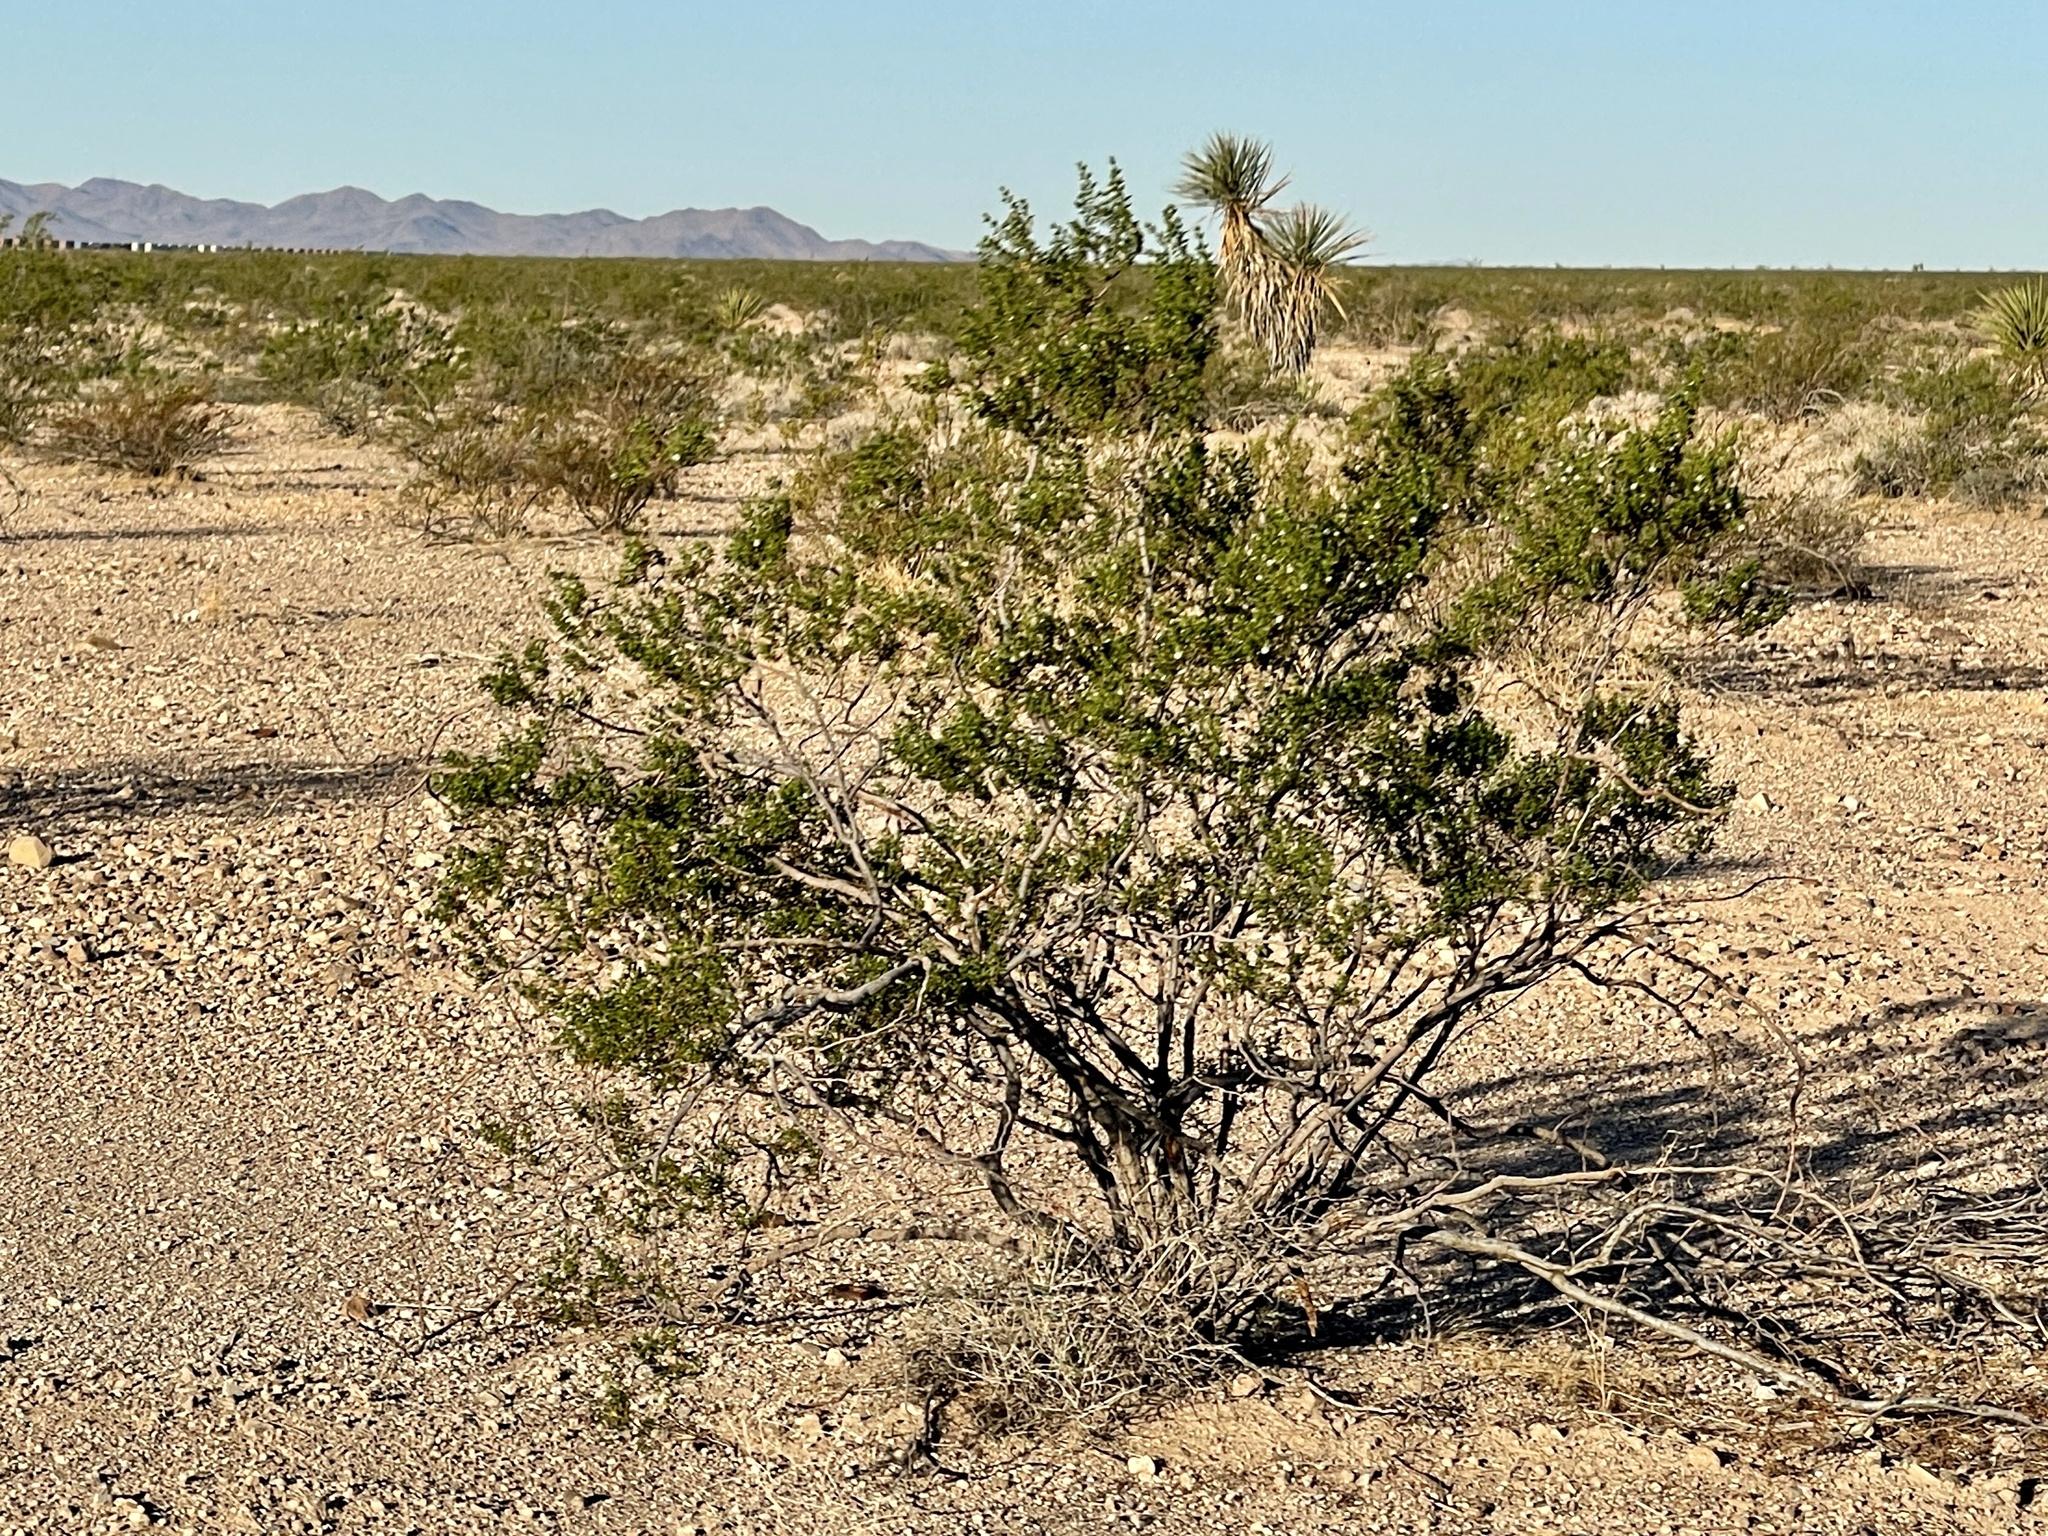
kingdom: Plantae
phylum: Tracheophyta
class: Magnoliopsida
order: Zygophyllales
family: Zygophyllaceae
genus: Larrea
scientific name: Larrea tridentata
